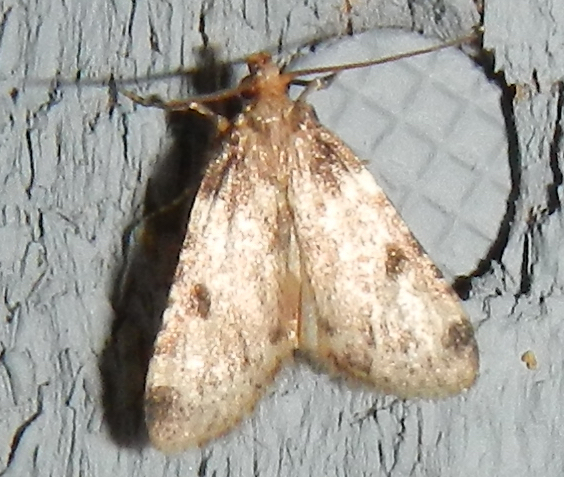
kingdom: Animalia
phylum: Arthropoda
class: Insecta
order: Lepidoptera
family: Pyralidae
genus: Aglossa
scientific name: Aglossa costiferalis
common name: Calico pyralid moth
